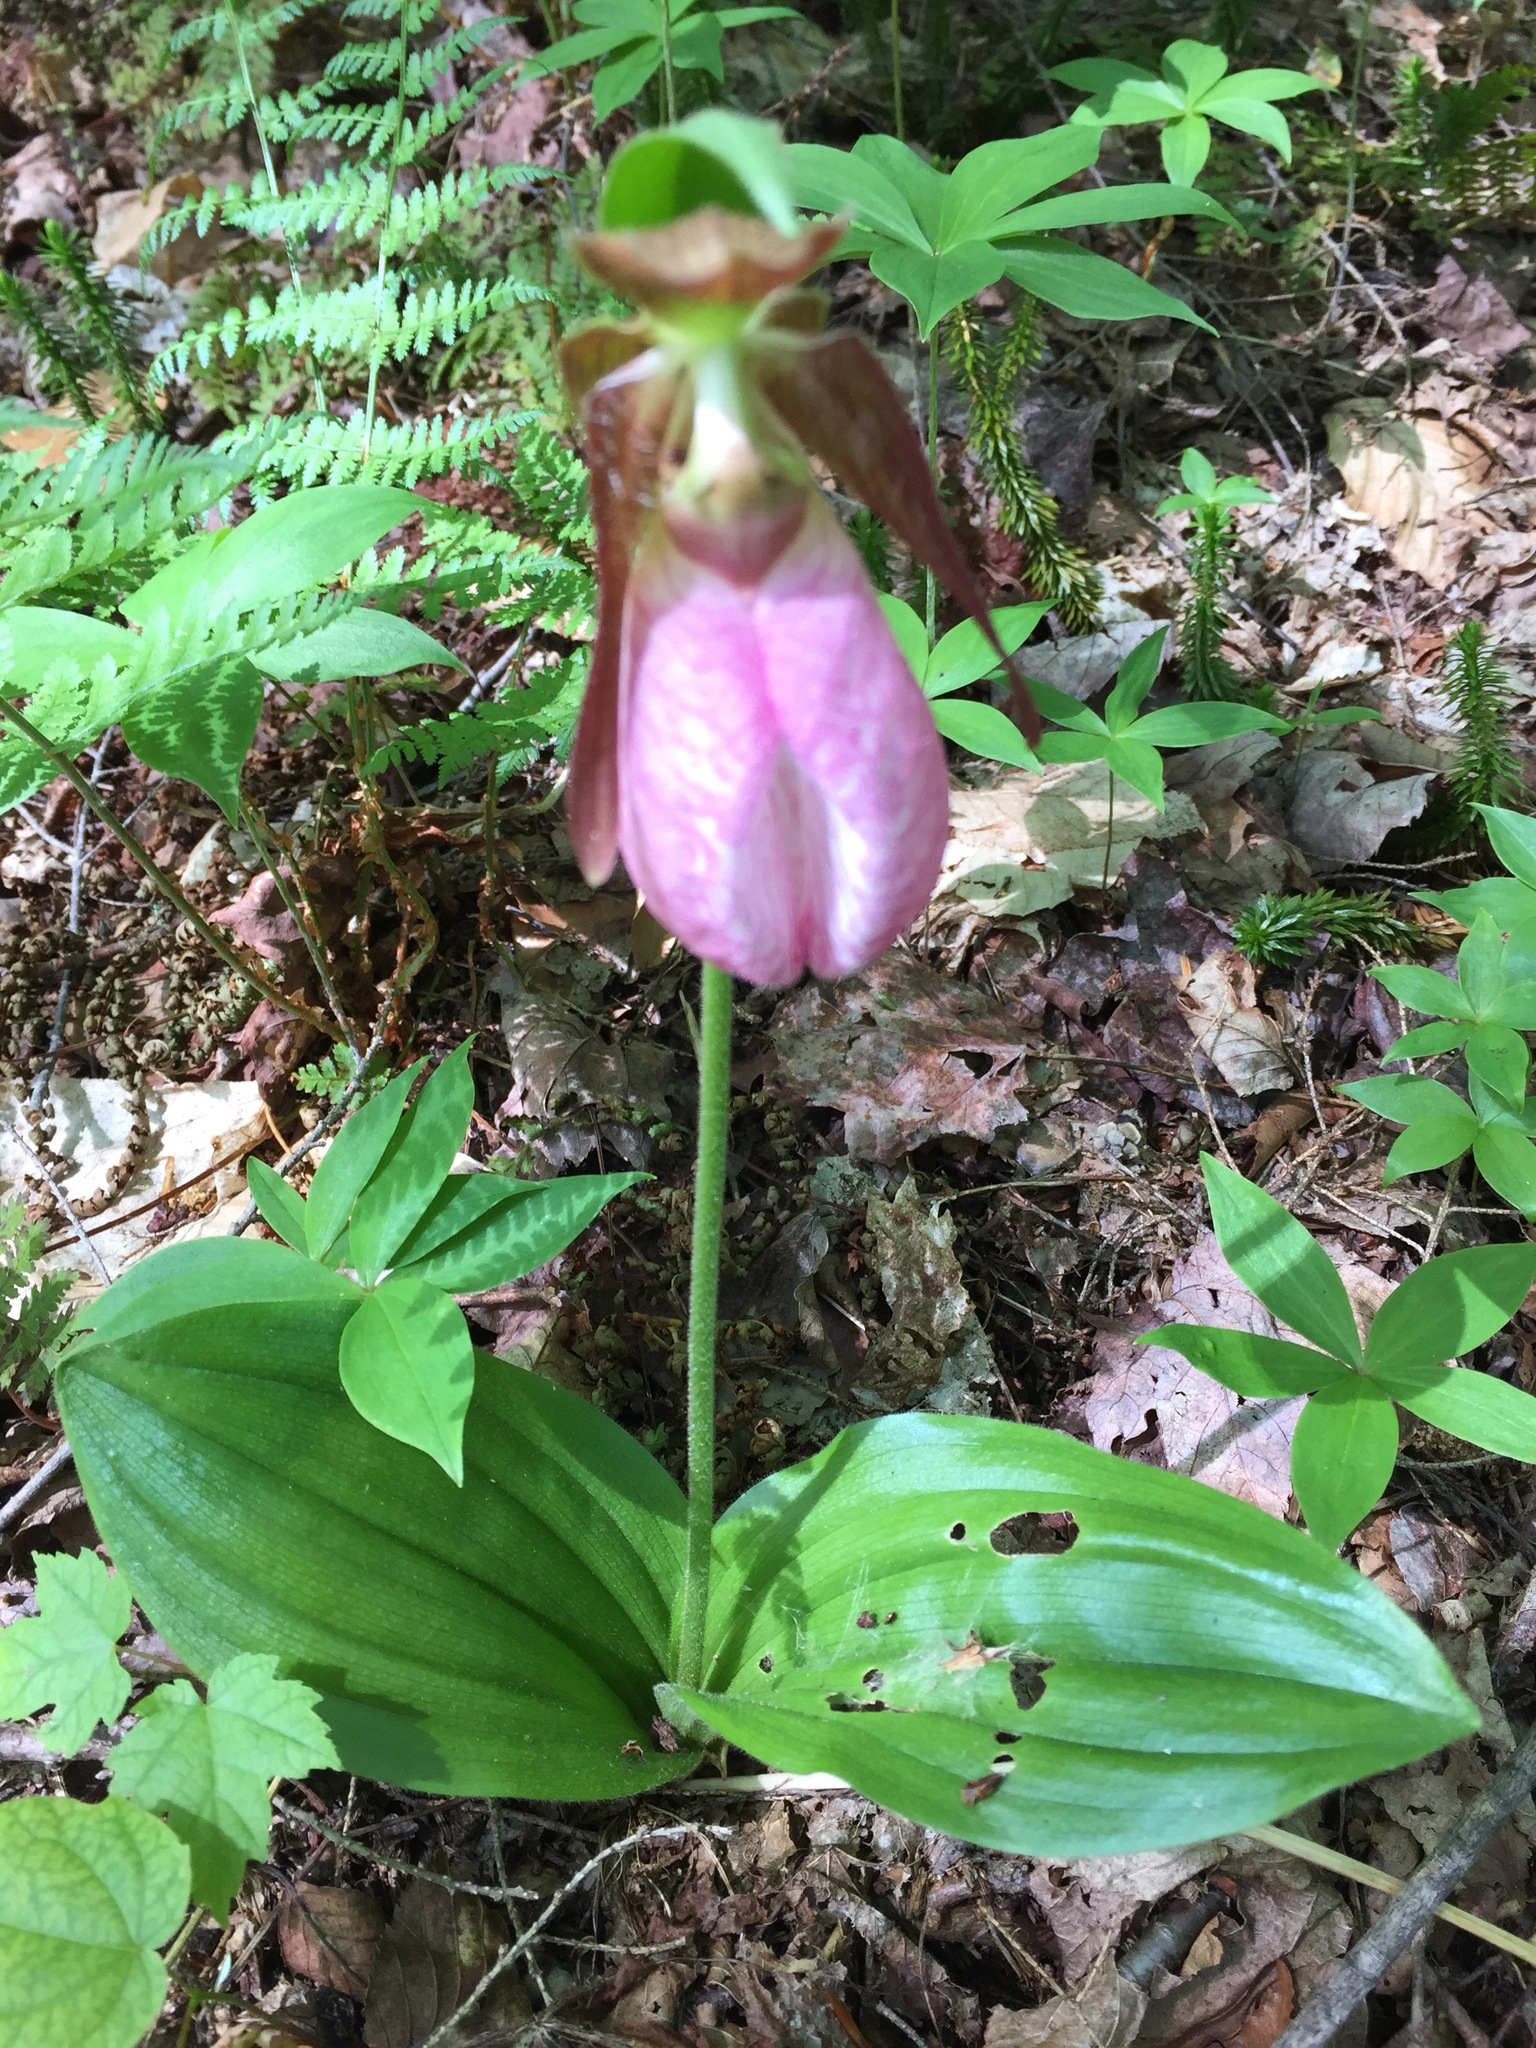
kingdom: Plantae
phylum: Tracheophyta
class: Liliopsida
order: Asparagales
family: Orchidaceae
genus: Cypripedium
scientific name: Cypripedium acaule
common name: Pink lady's-slipper
